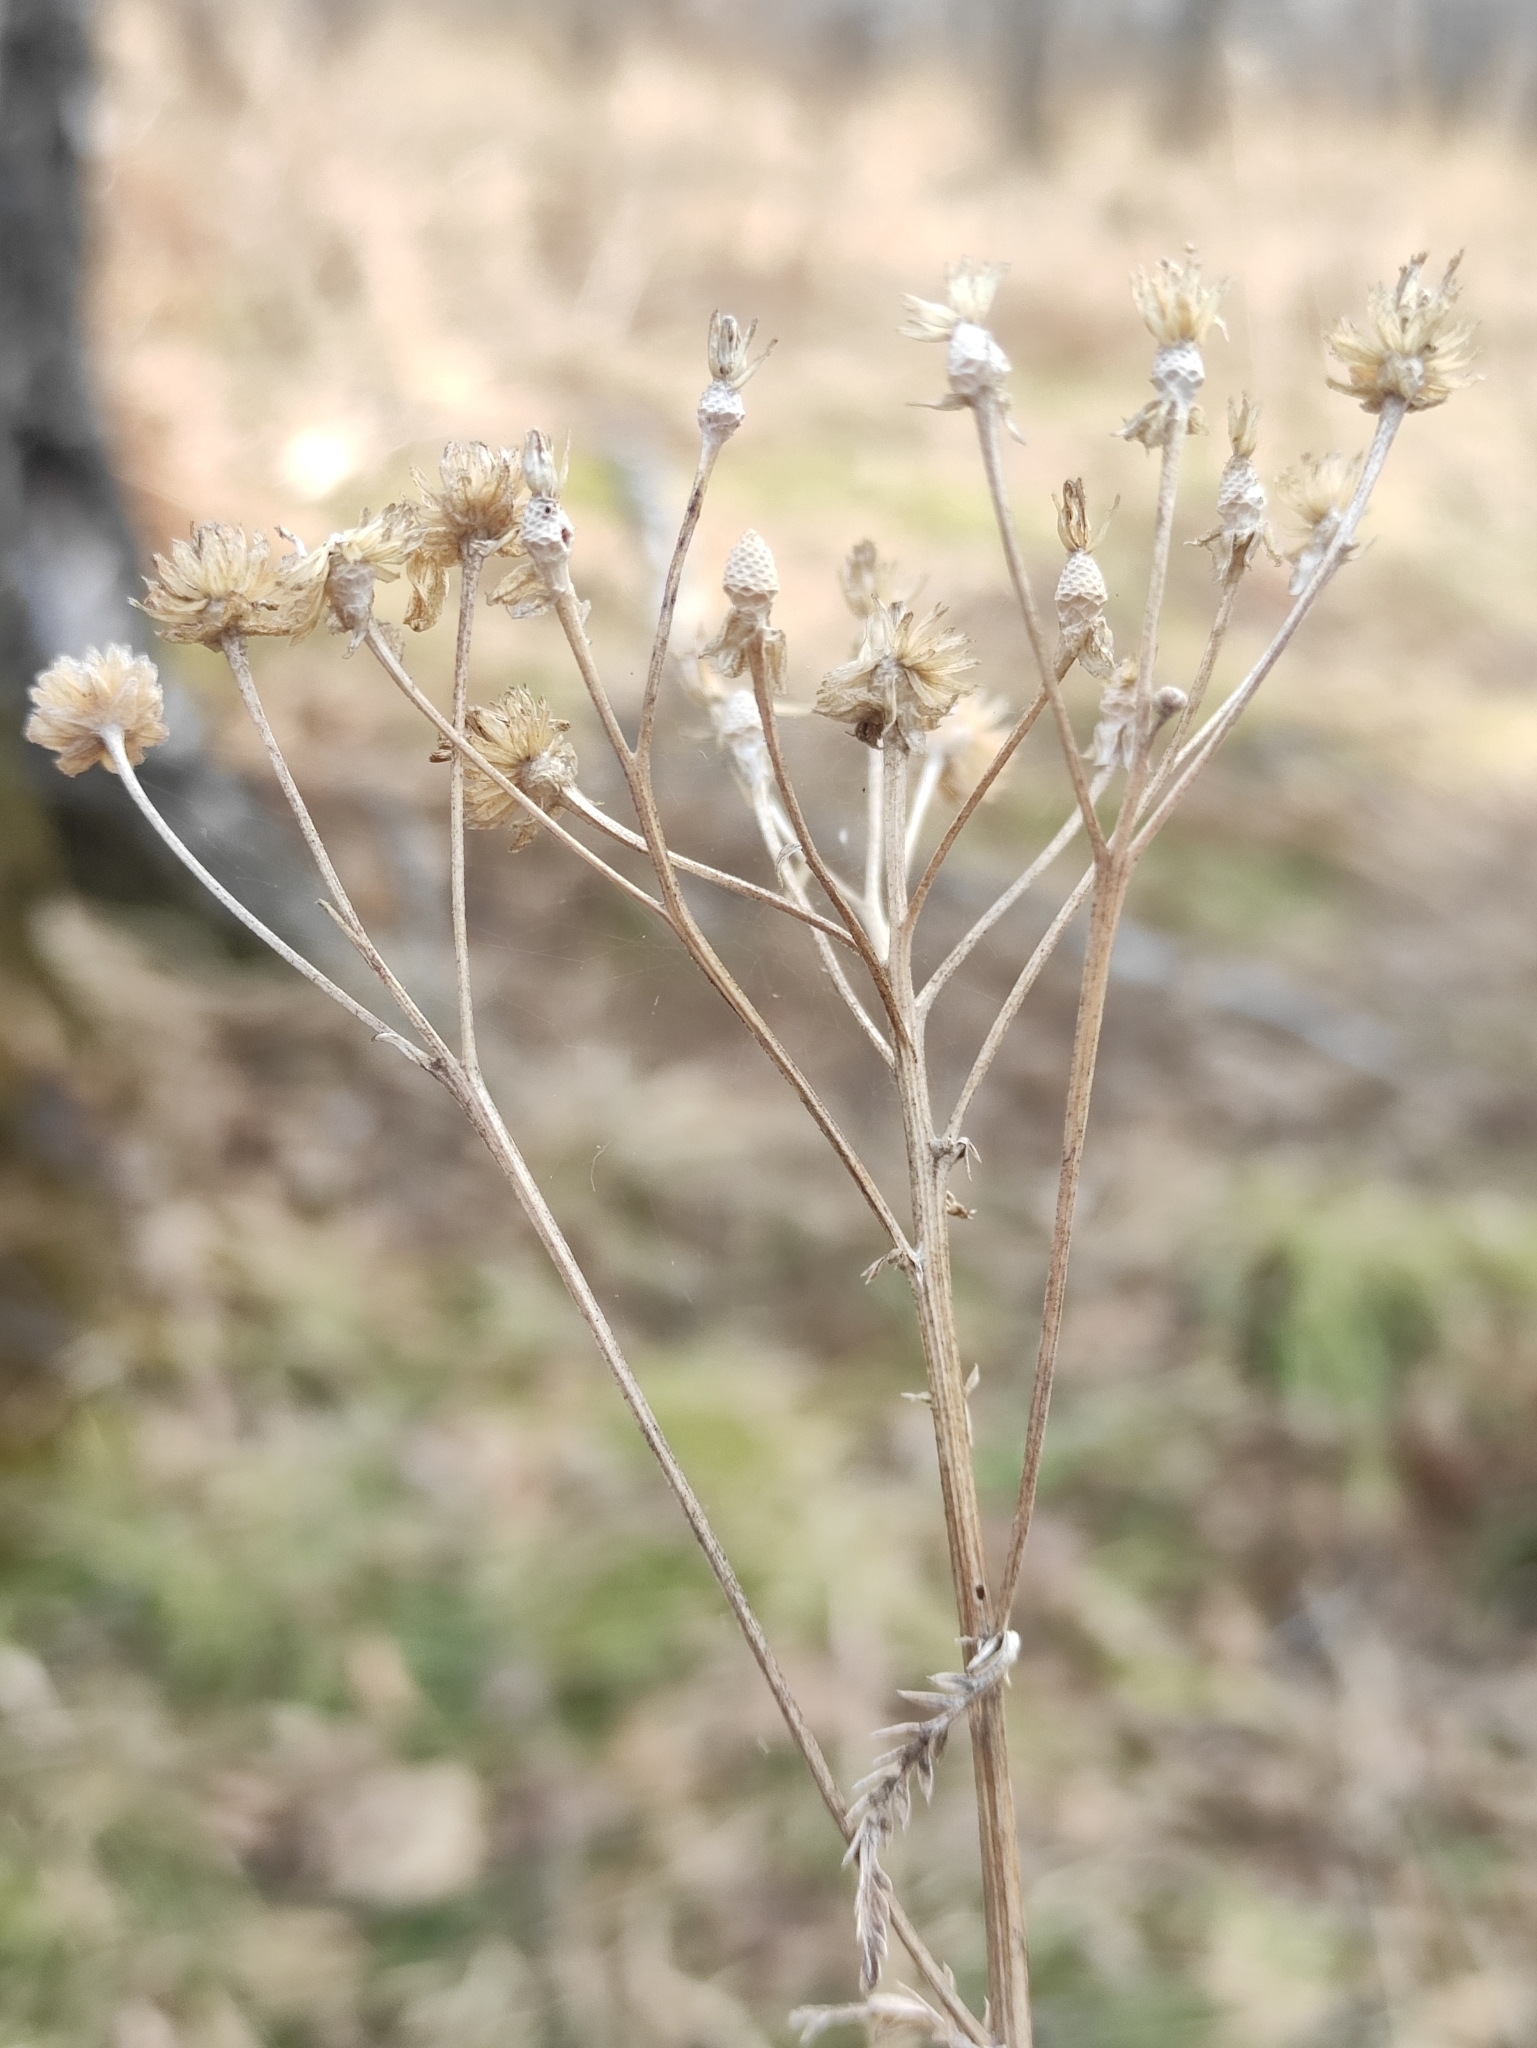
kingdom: Plantae
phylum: Tracheophyta
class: Magnoliopsida
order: Asterales
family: Asteraceae
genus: Achillea
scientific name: Achillea impatiens
